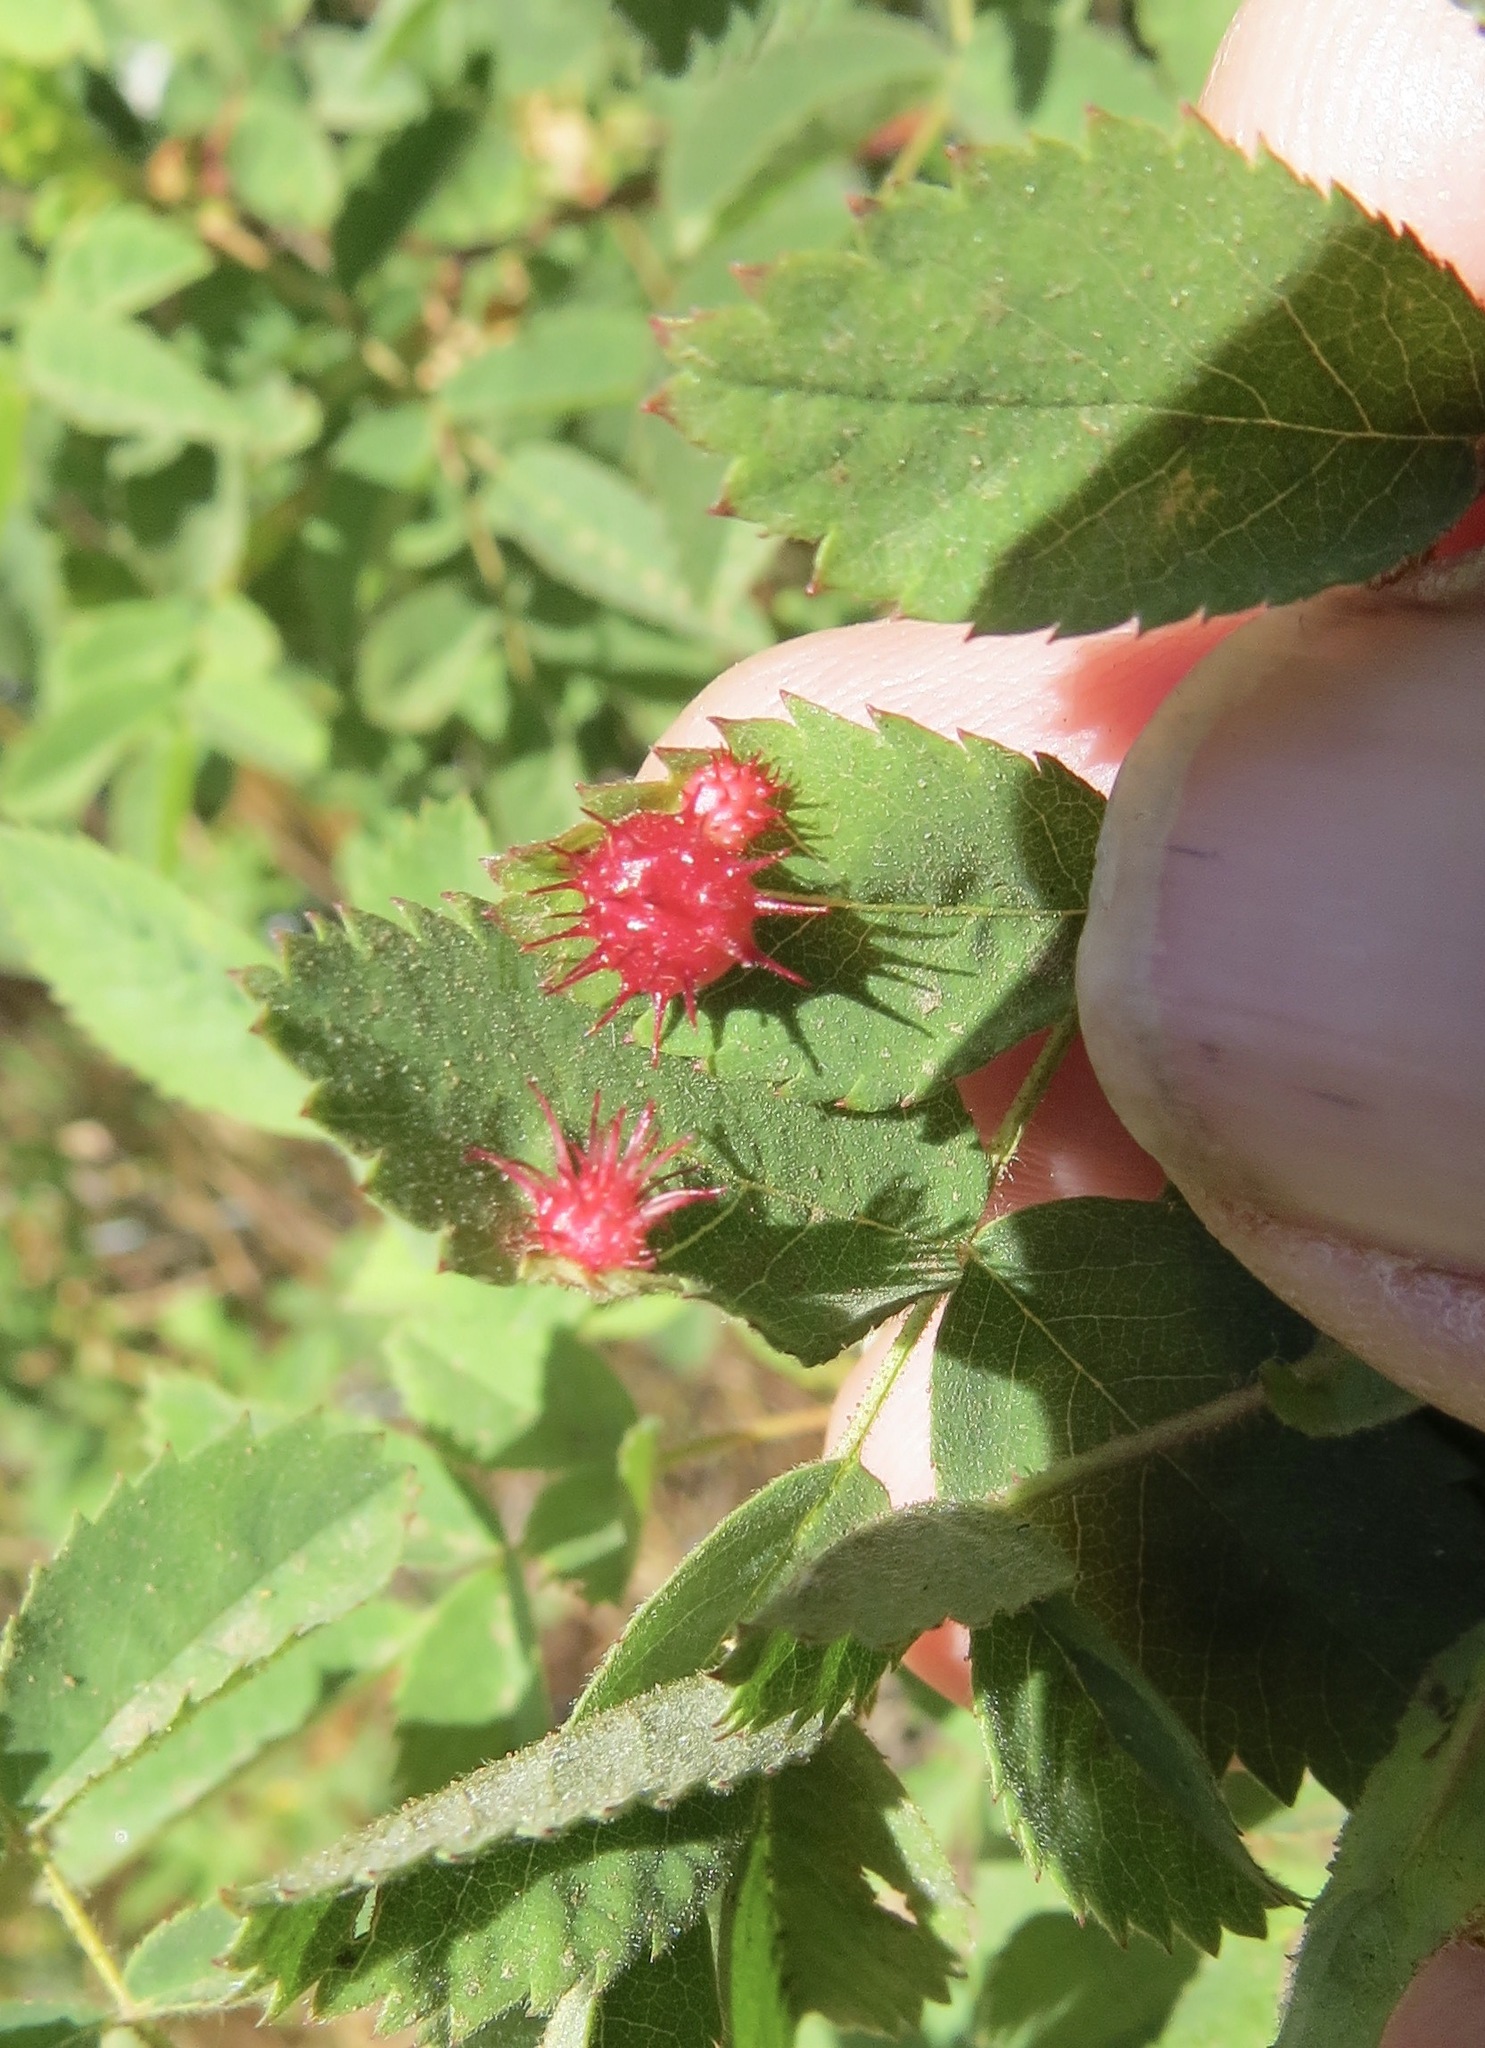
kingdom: Animalia
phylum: Arthropoda
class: Insecta
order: Hymenoptera
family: Cynipidae
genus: Diplolepis
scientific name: Diplolepis polita
